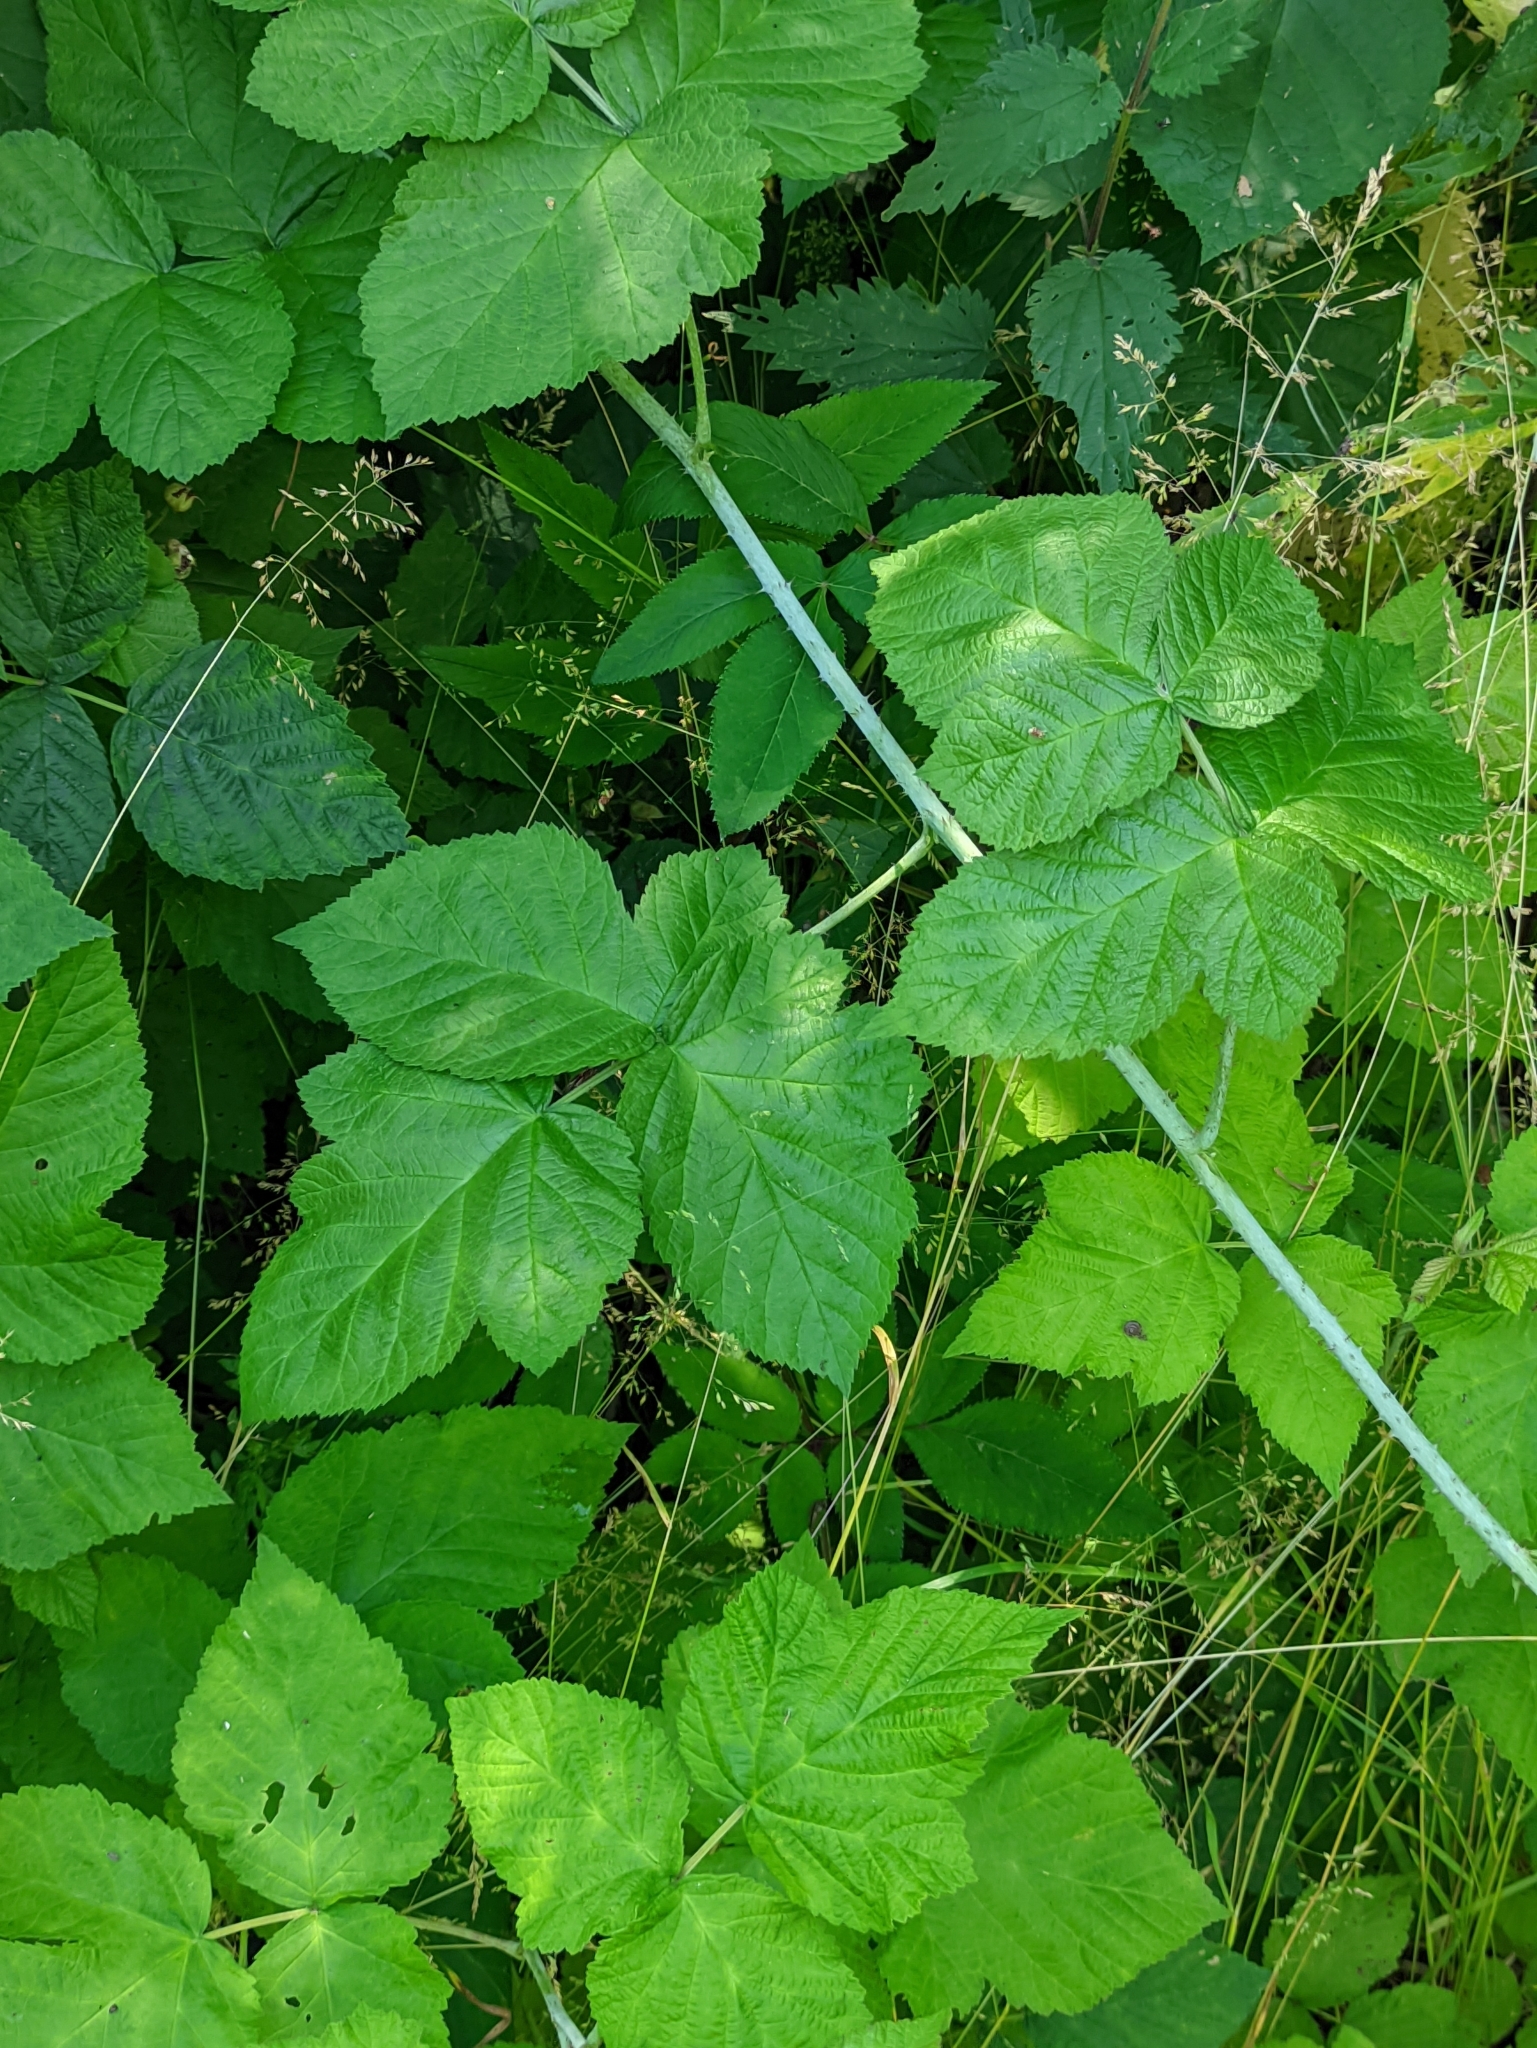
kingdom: Plantae
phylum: Tracheophyta
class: Magnoliopsida
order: Rosales
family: Rosaceae
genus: Rubus
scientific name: Rubus caesius
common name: Dewberry
